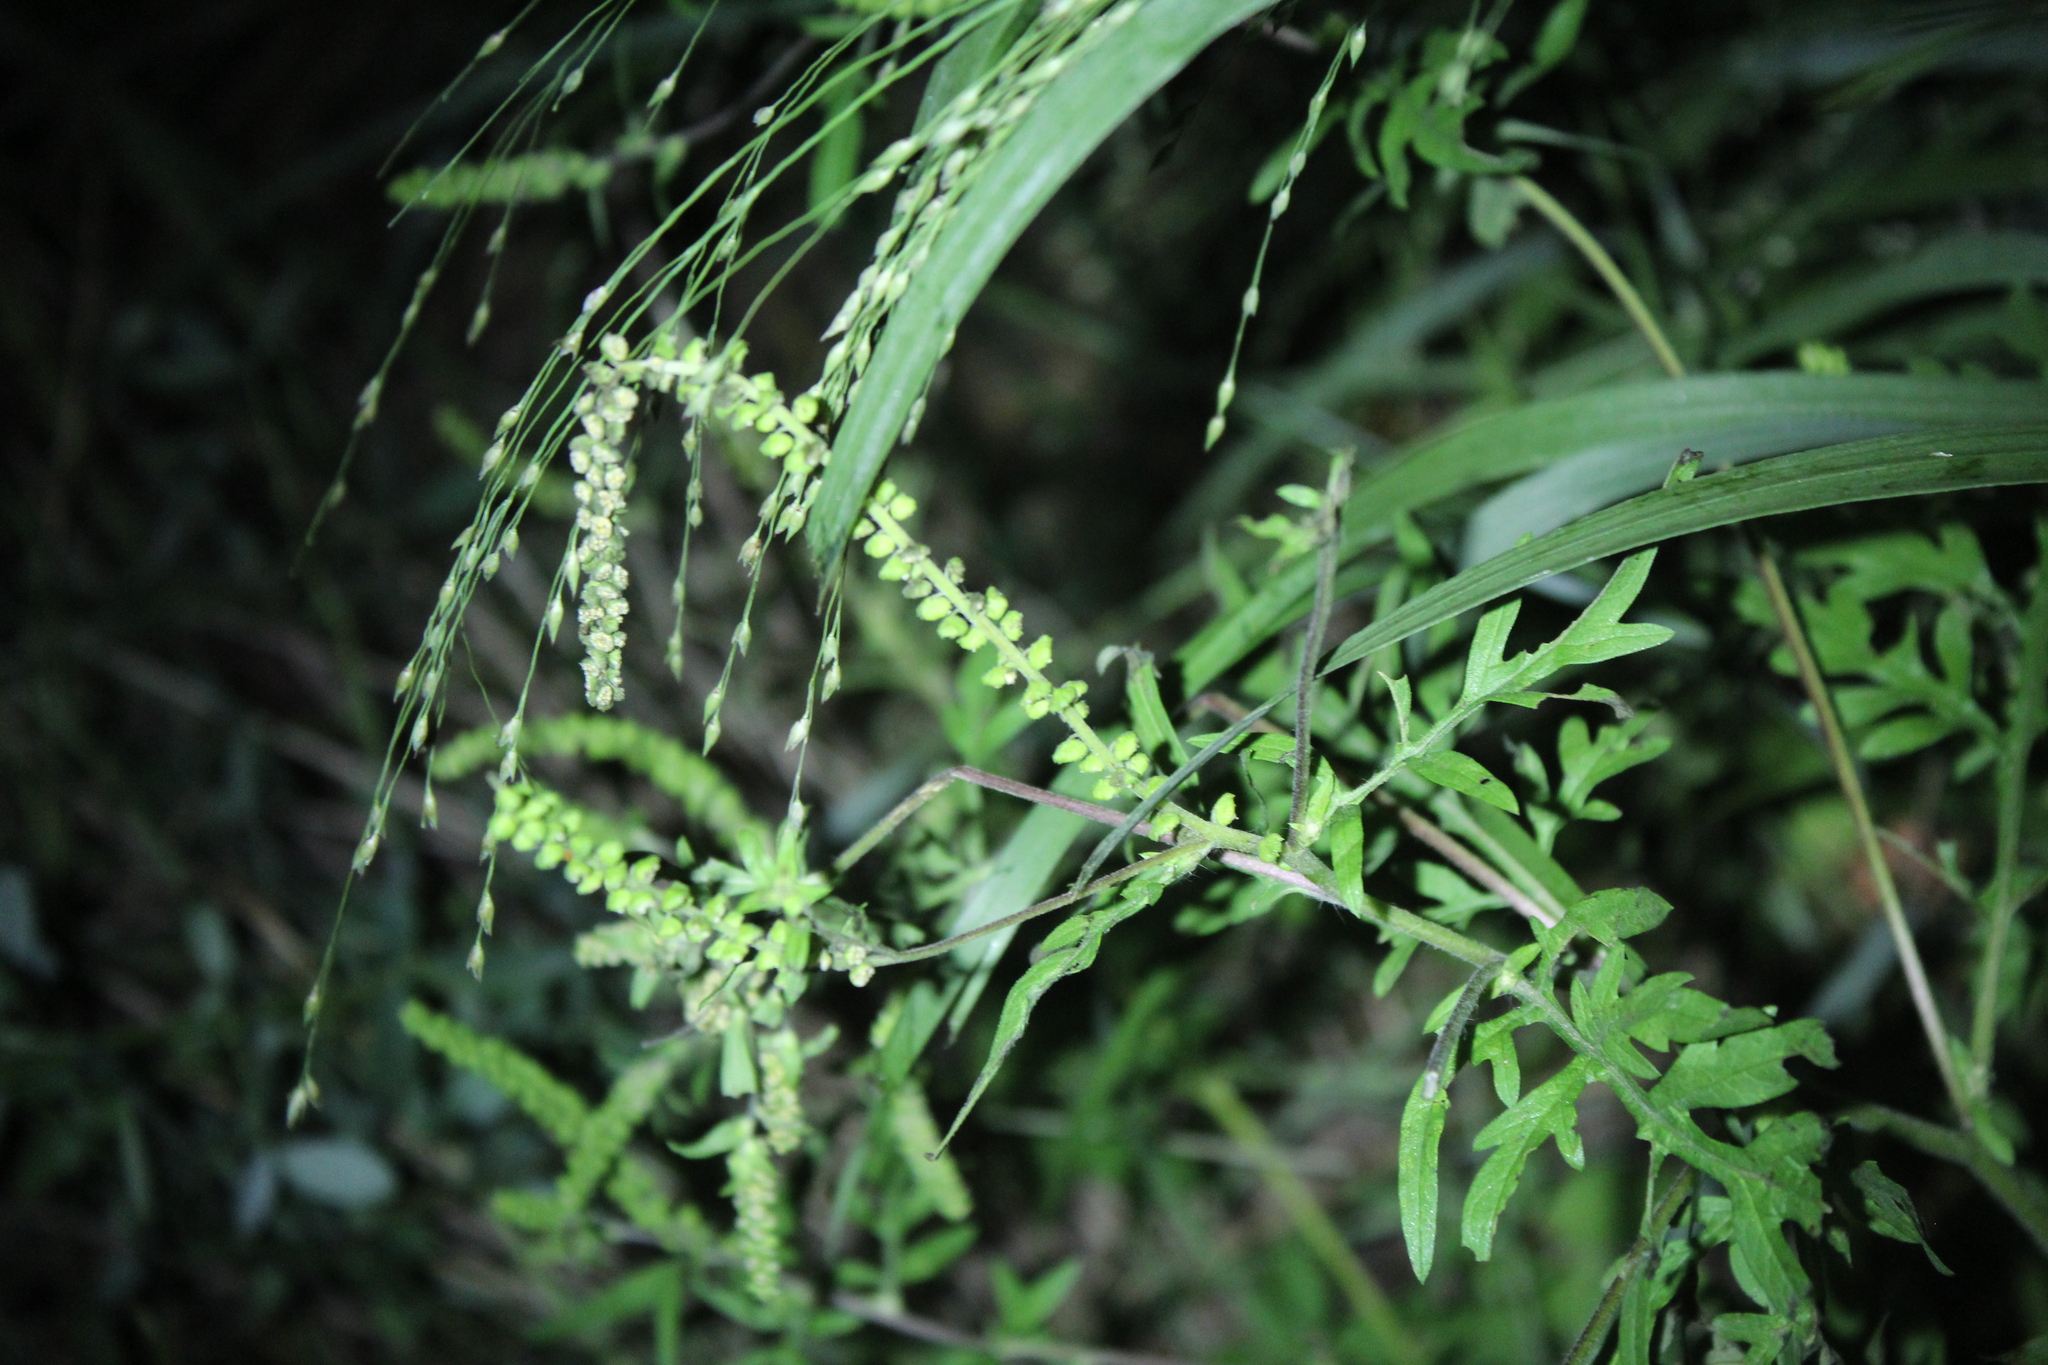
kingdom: Plantae
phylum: Tracheophyta
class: Magnoliopsida
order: Asterales
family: Asteraceae
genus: Ambrosia
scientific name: Ambrosia artemisiifolia
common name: Annual ragweed
